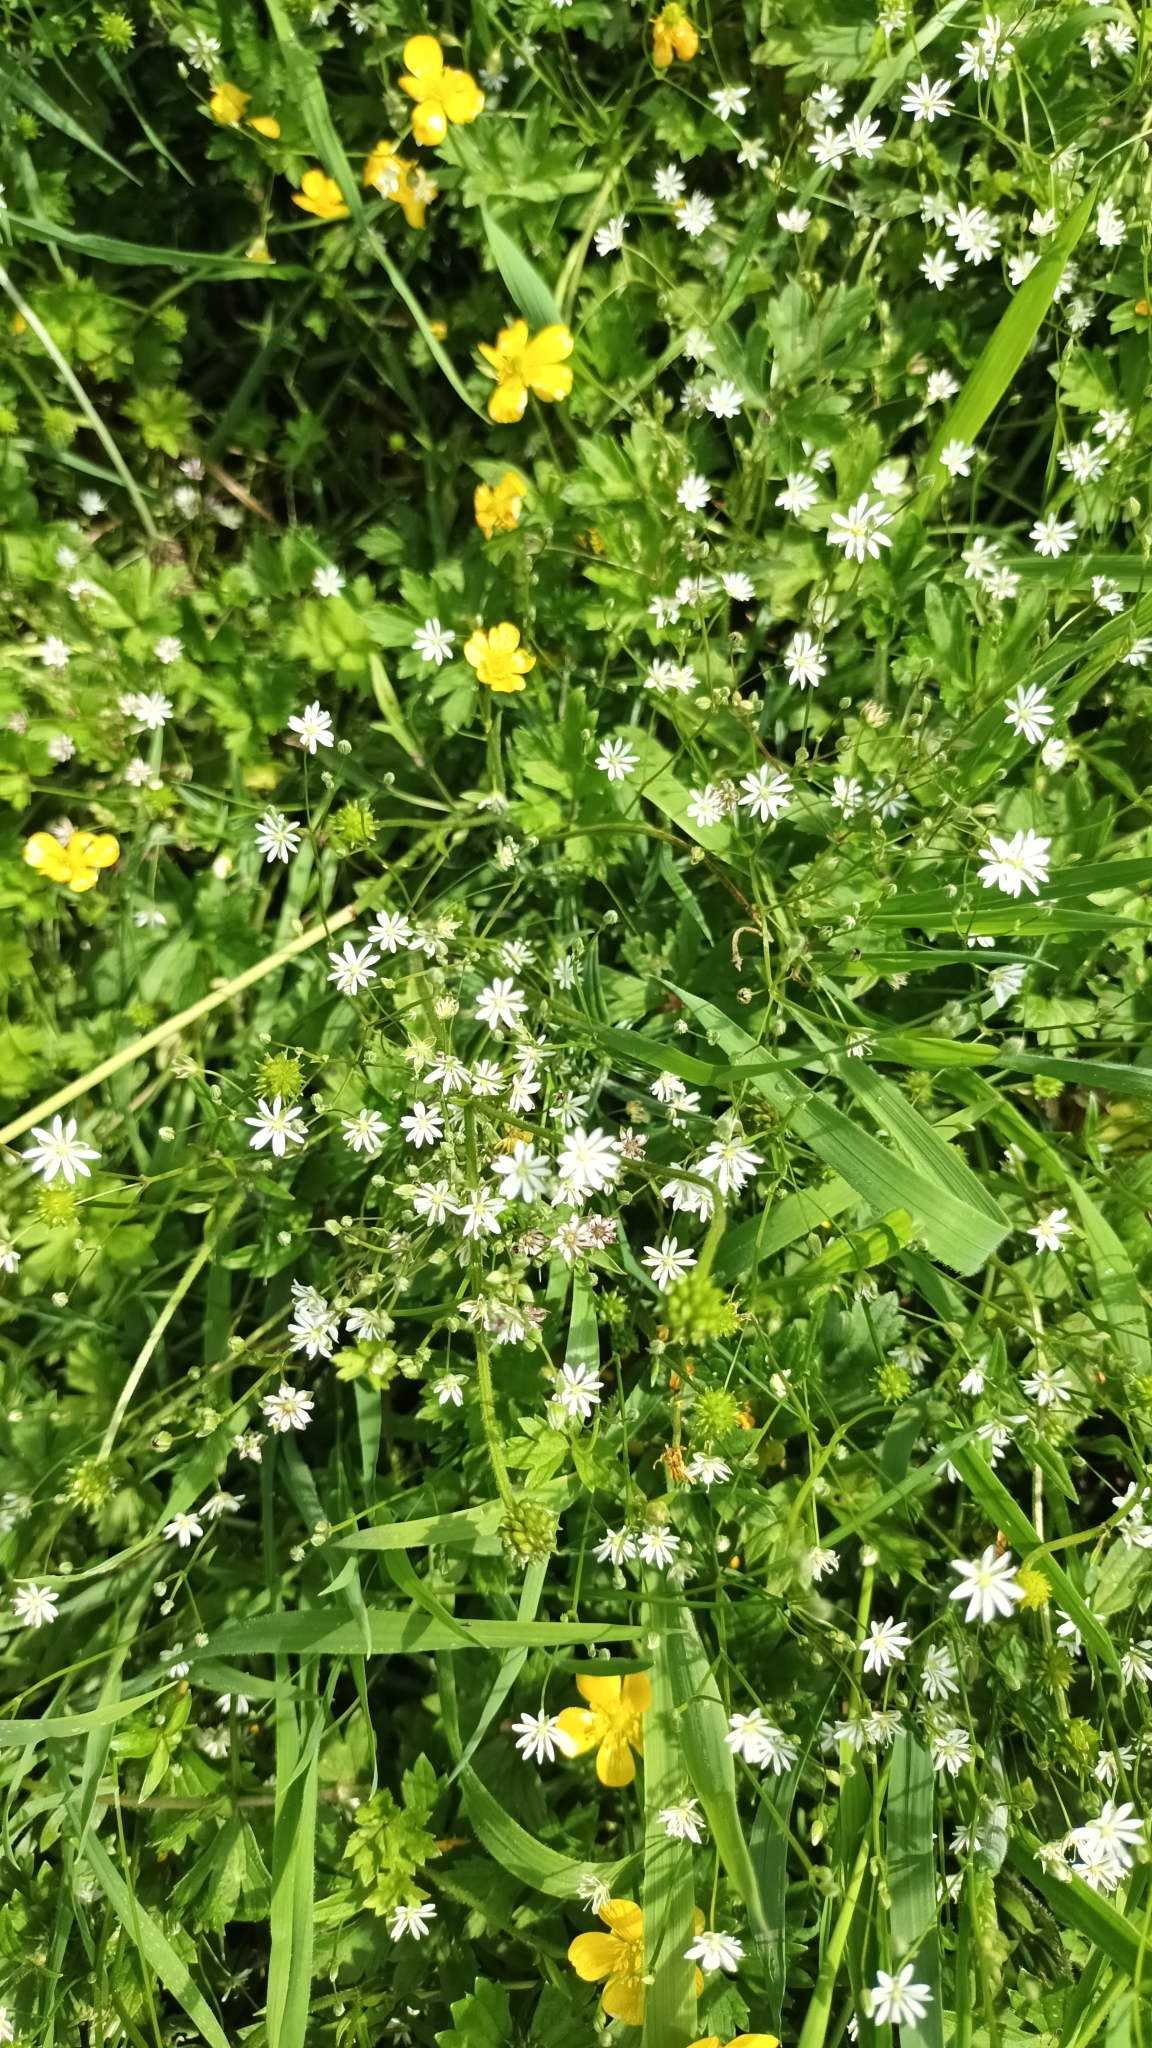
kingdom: Plantae
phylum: Tracheophyta
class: Magnoliopsida
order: Caryophyllales
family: Caryophyllaceae
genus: Stellaria
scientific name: Stellaria graminea
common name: Grass-like starwort
